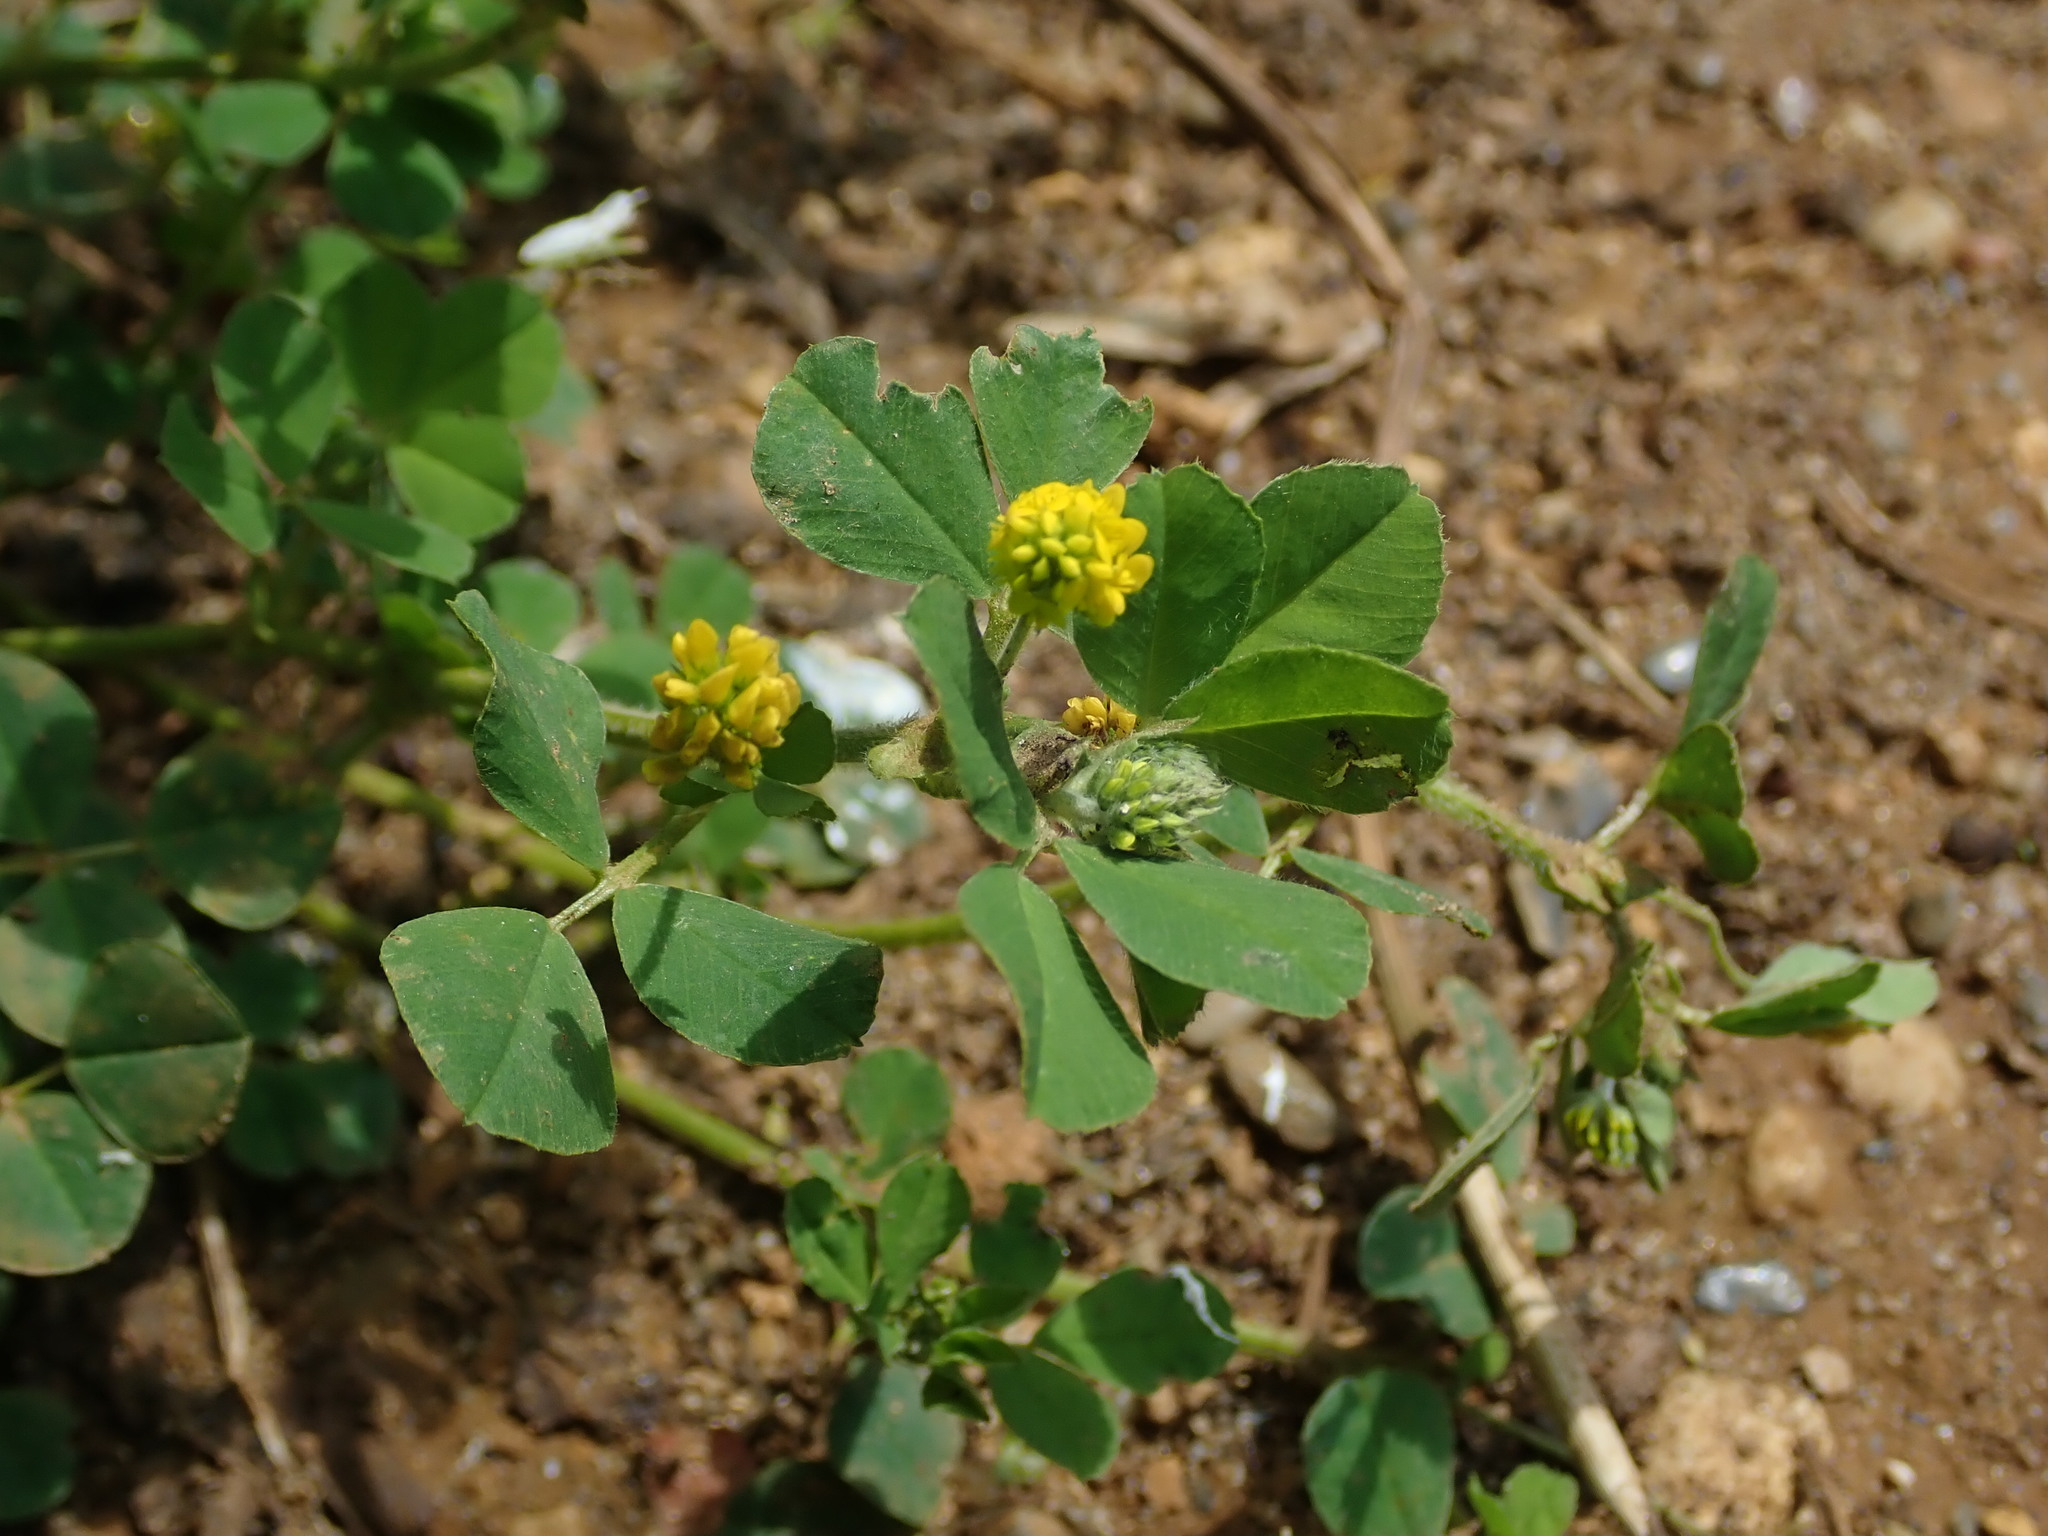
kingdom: Plantae
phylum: Tracheophyta
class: Magnoliopsida
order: Fabales
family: Fabaceae
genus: Medicago
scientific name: Medicago lupulina
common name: Black medick
